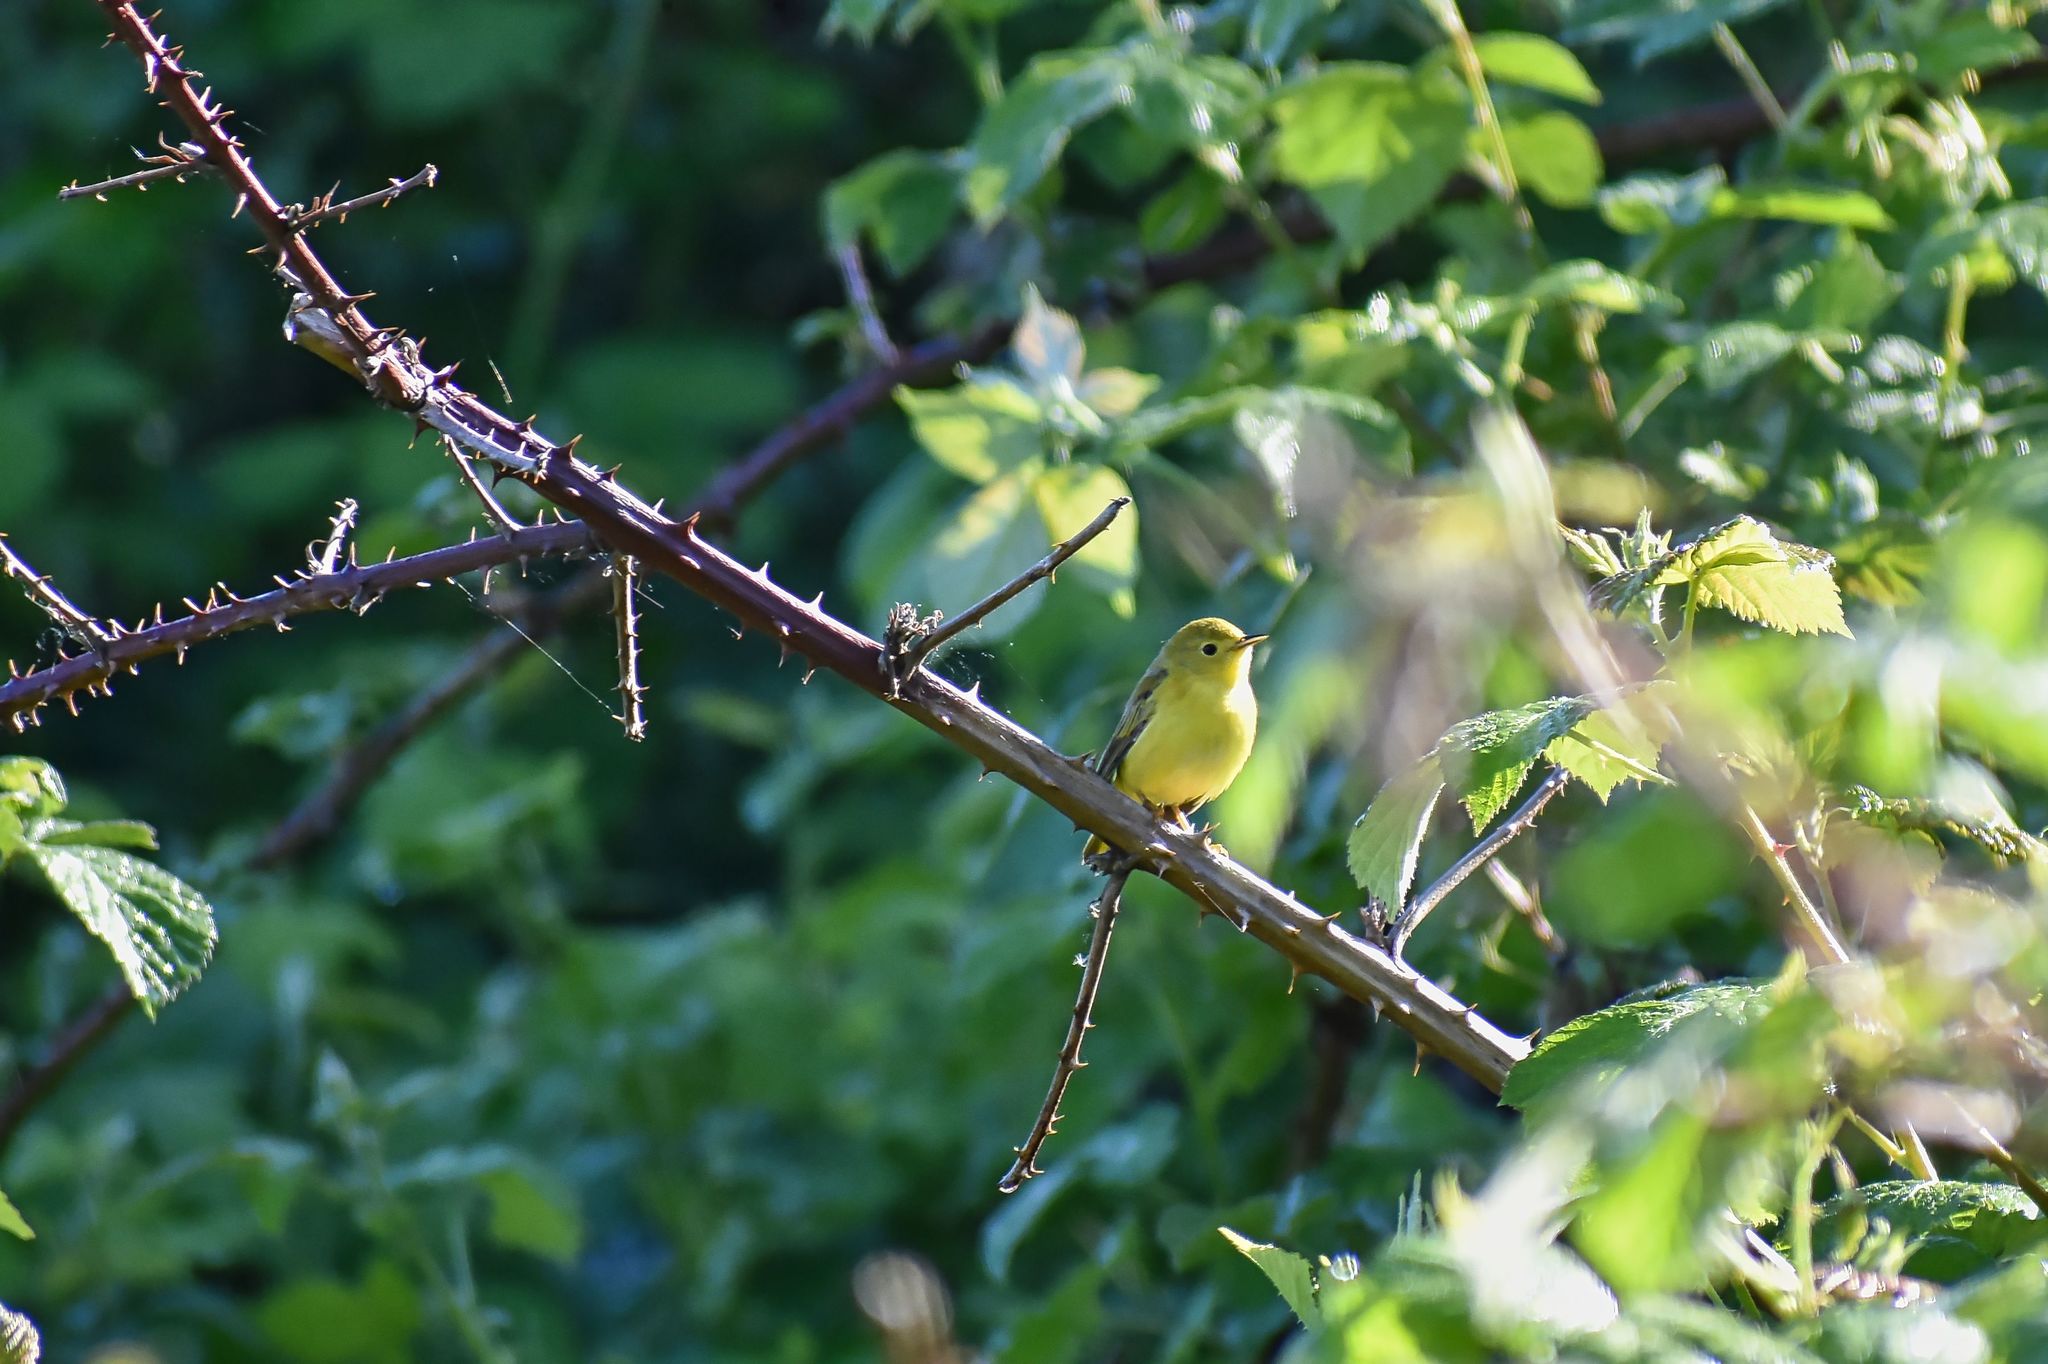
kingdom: Animalia
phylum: Chordata
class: Aves
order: Passeriformes
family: Parulidae
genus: Setophaga
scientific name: Setophaga petechia
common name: Yellow warbler
